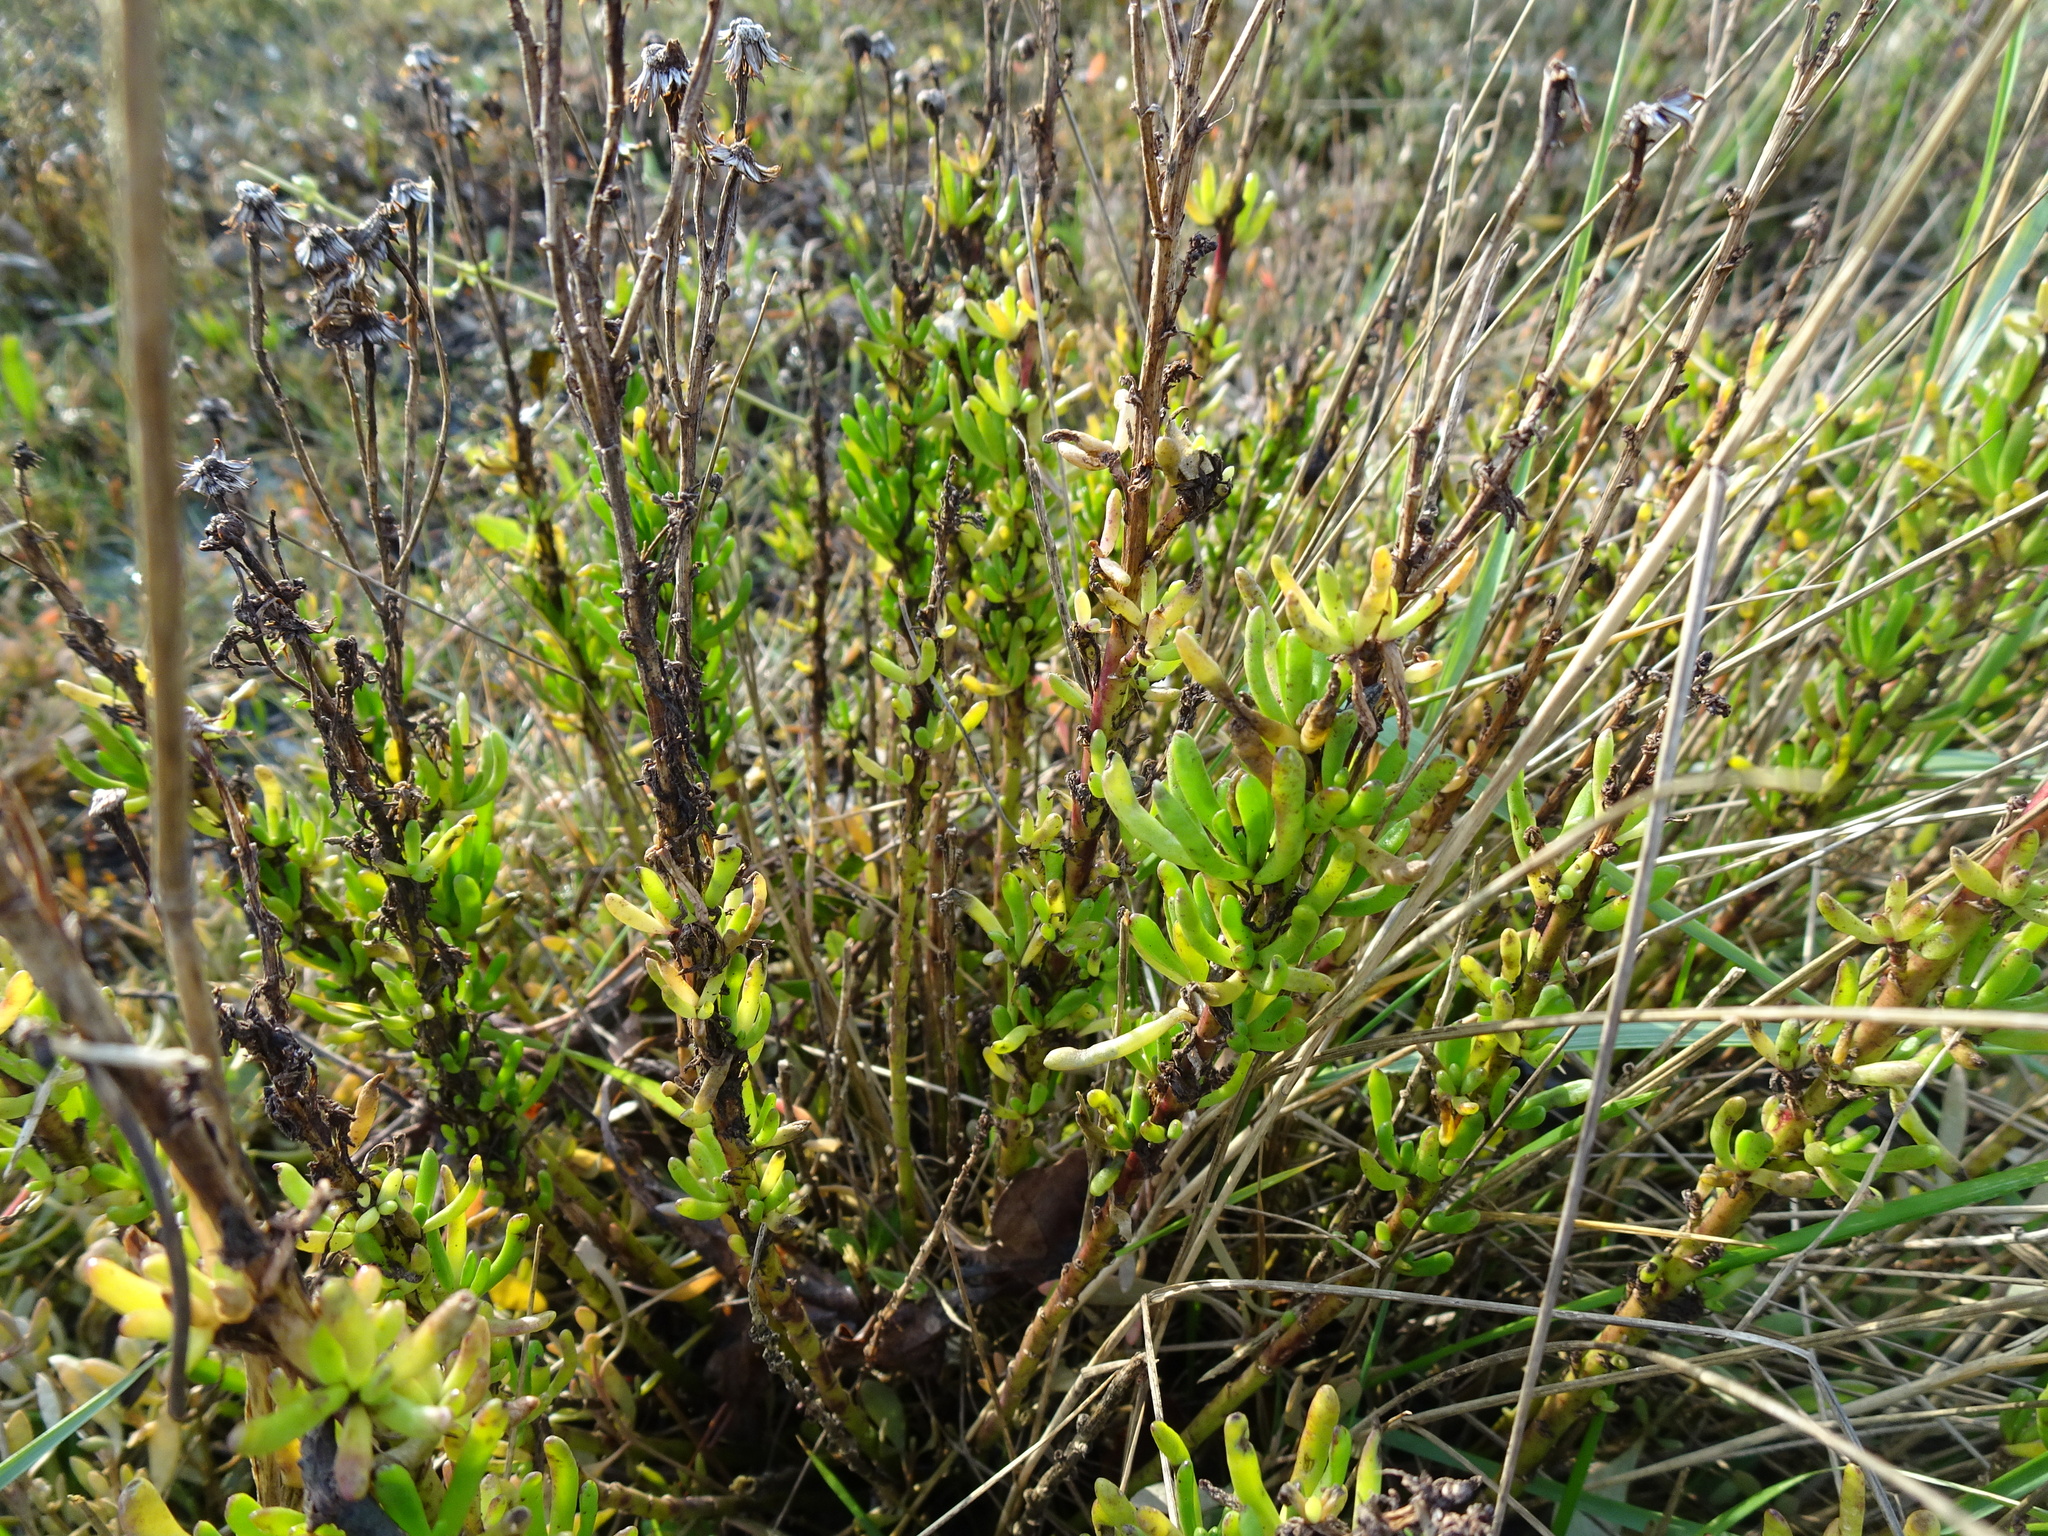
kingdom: Plantae
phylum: Tracheophyta
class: Magnoliopsida
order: Asterales
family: Asteraceae
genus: Limbarda
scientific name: Limbarda crithmoides
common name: Golden samphire
